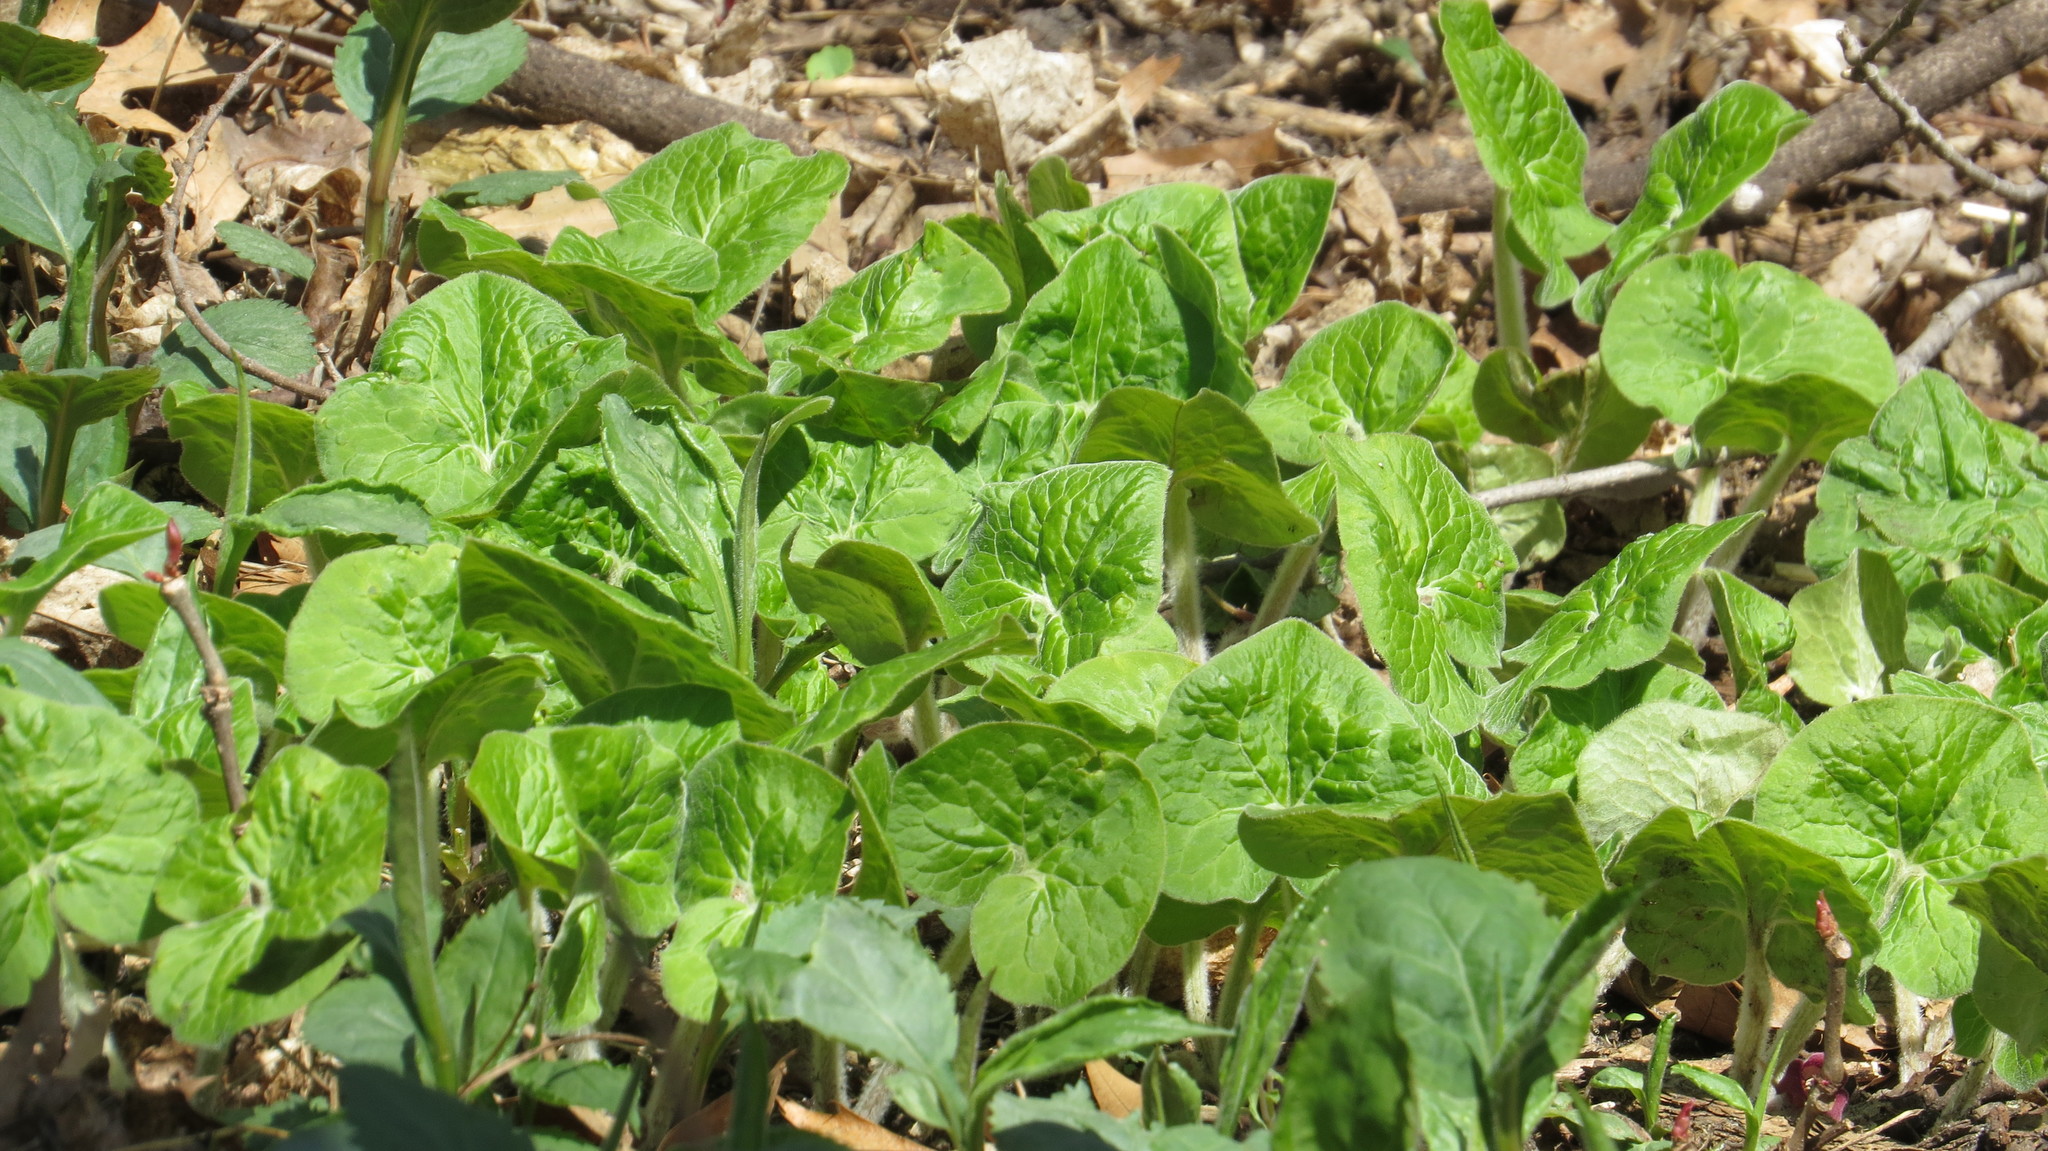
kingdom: Plantae
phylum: Tracheophyta
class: Magnoliopsida
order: Piperales
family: Aristolochiaceae
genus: Asarum
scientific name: Asarum canadense
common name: Wild ginger
